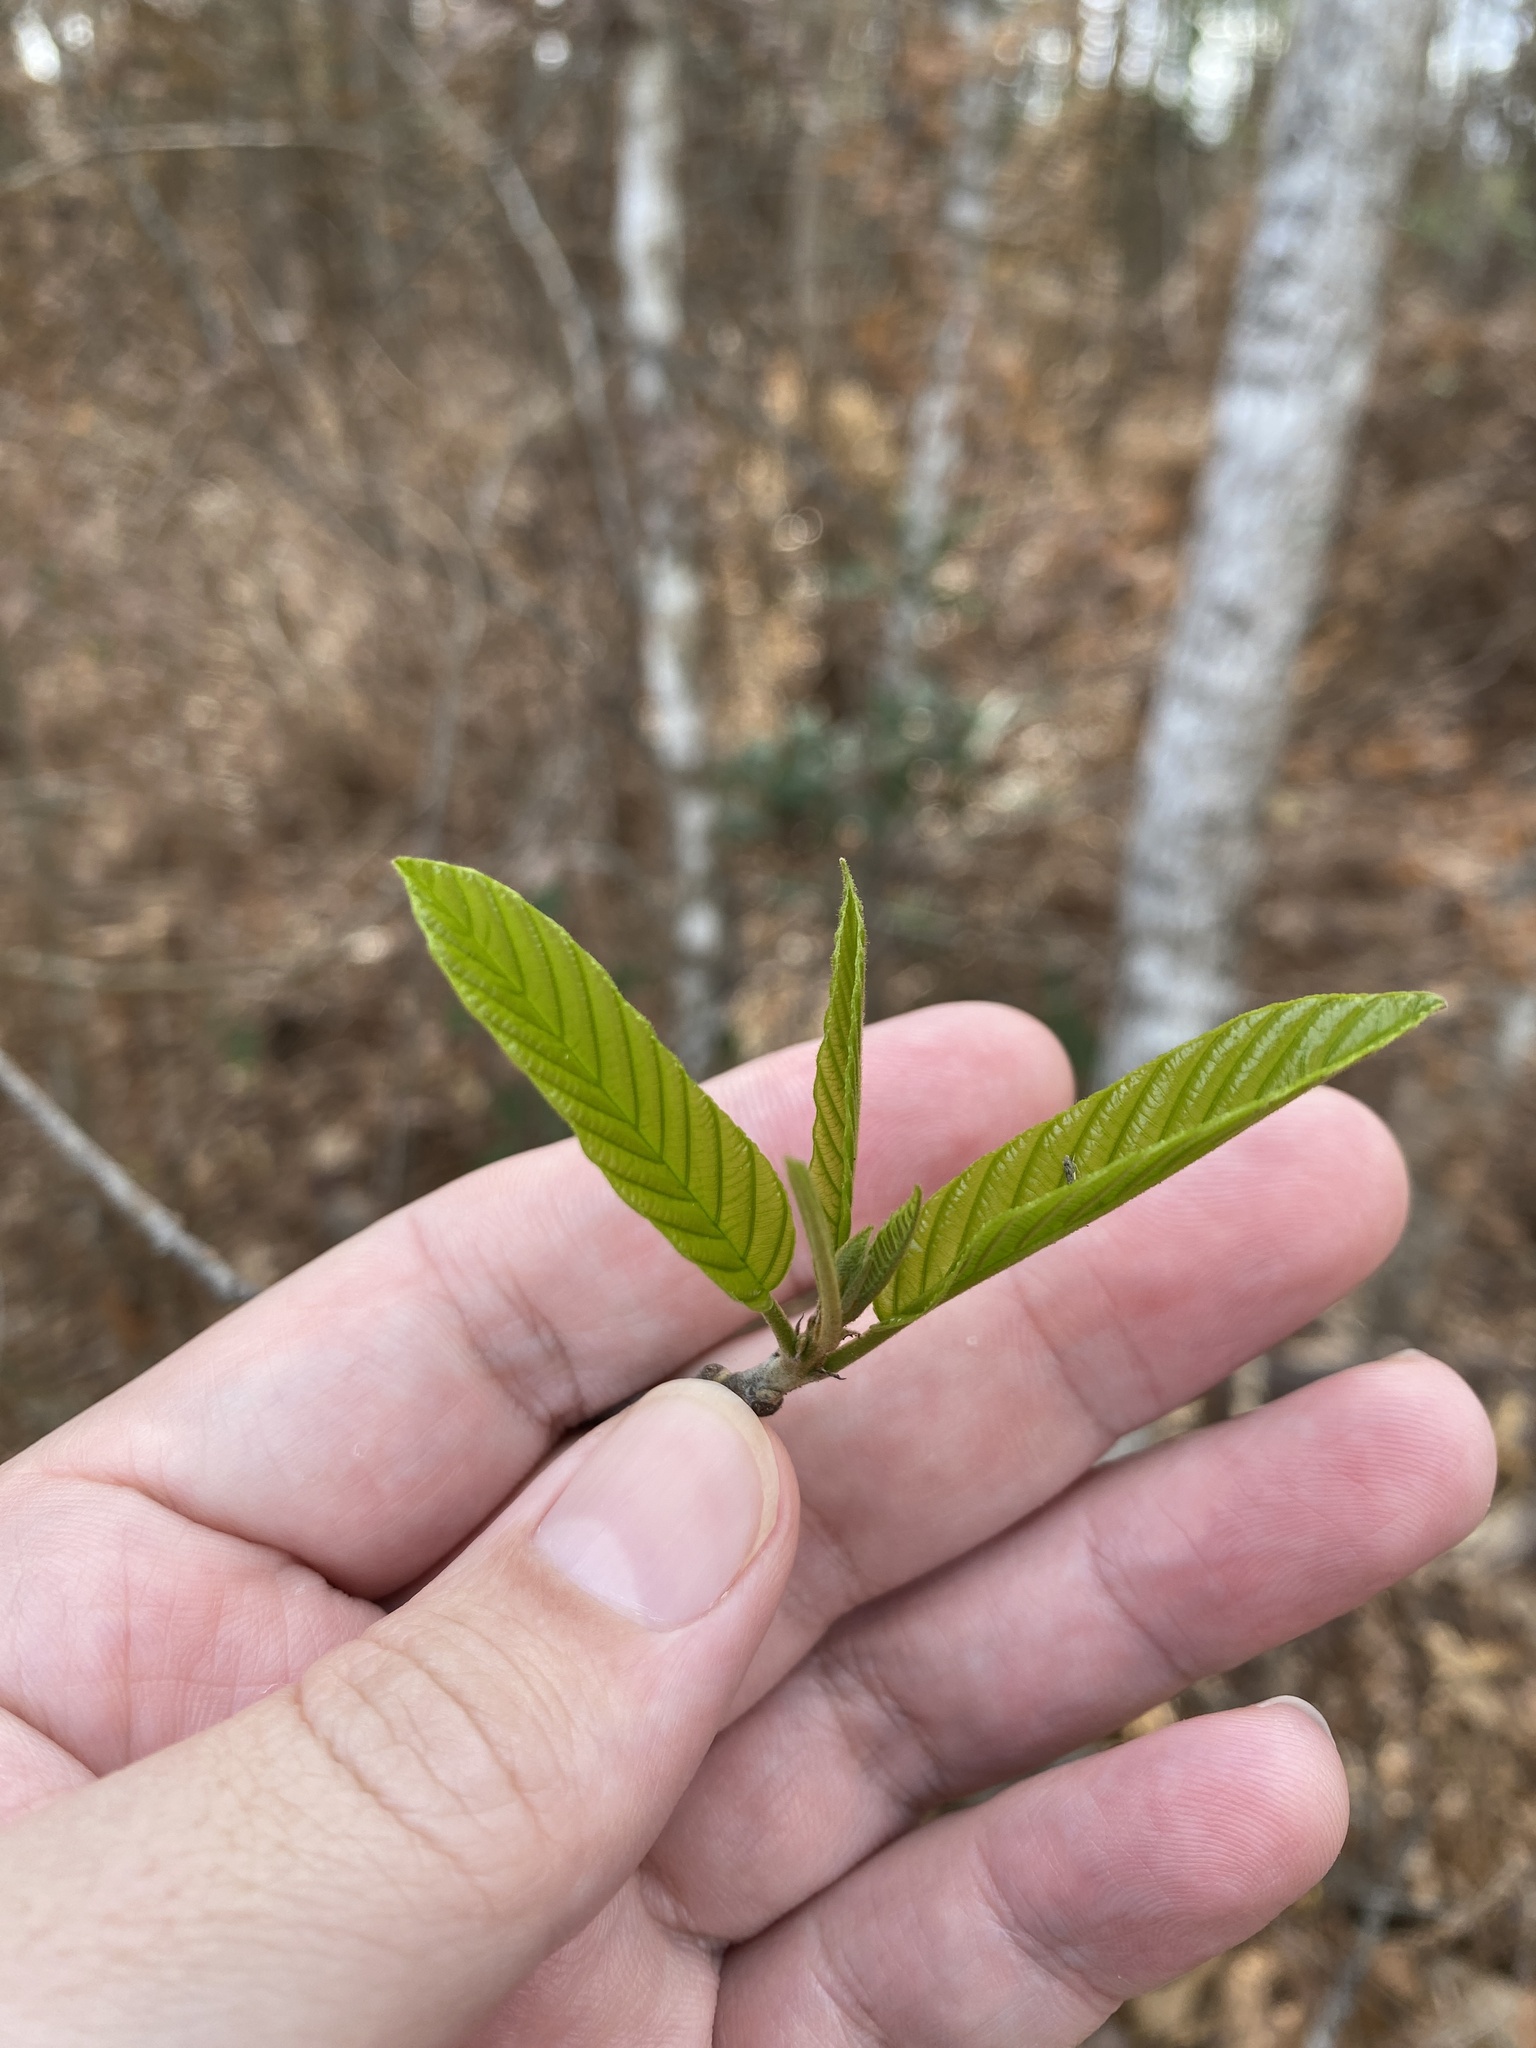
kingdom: Plantae
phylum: Tracheophyta
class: Magnoliopsida
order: Rosales
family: Rhamnaceae
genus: Frangula
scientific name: Frangula caroliniana
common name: Carolina buckthorn
